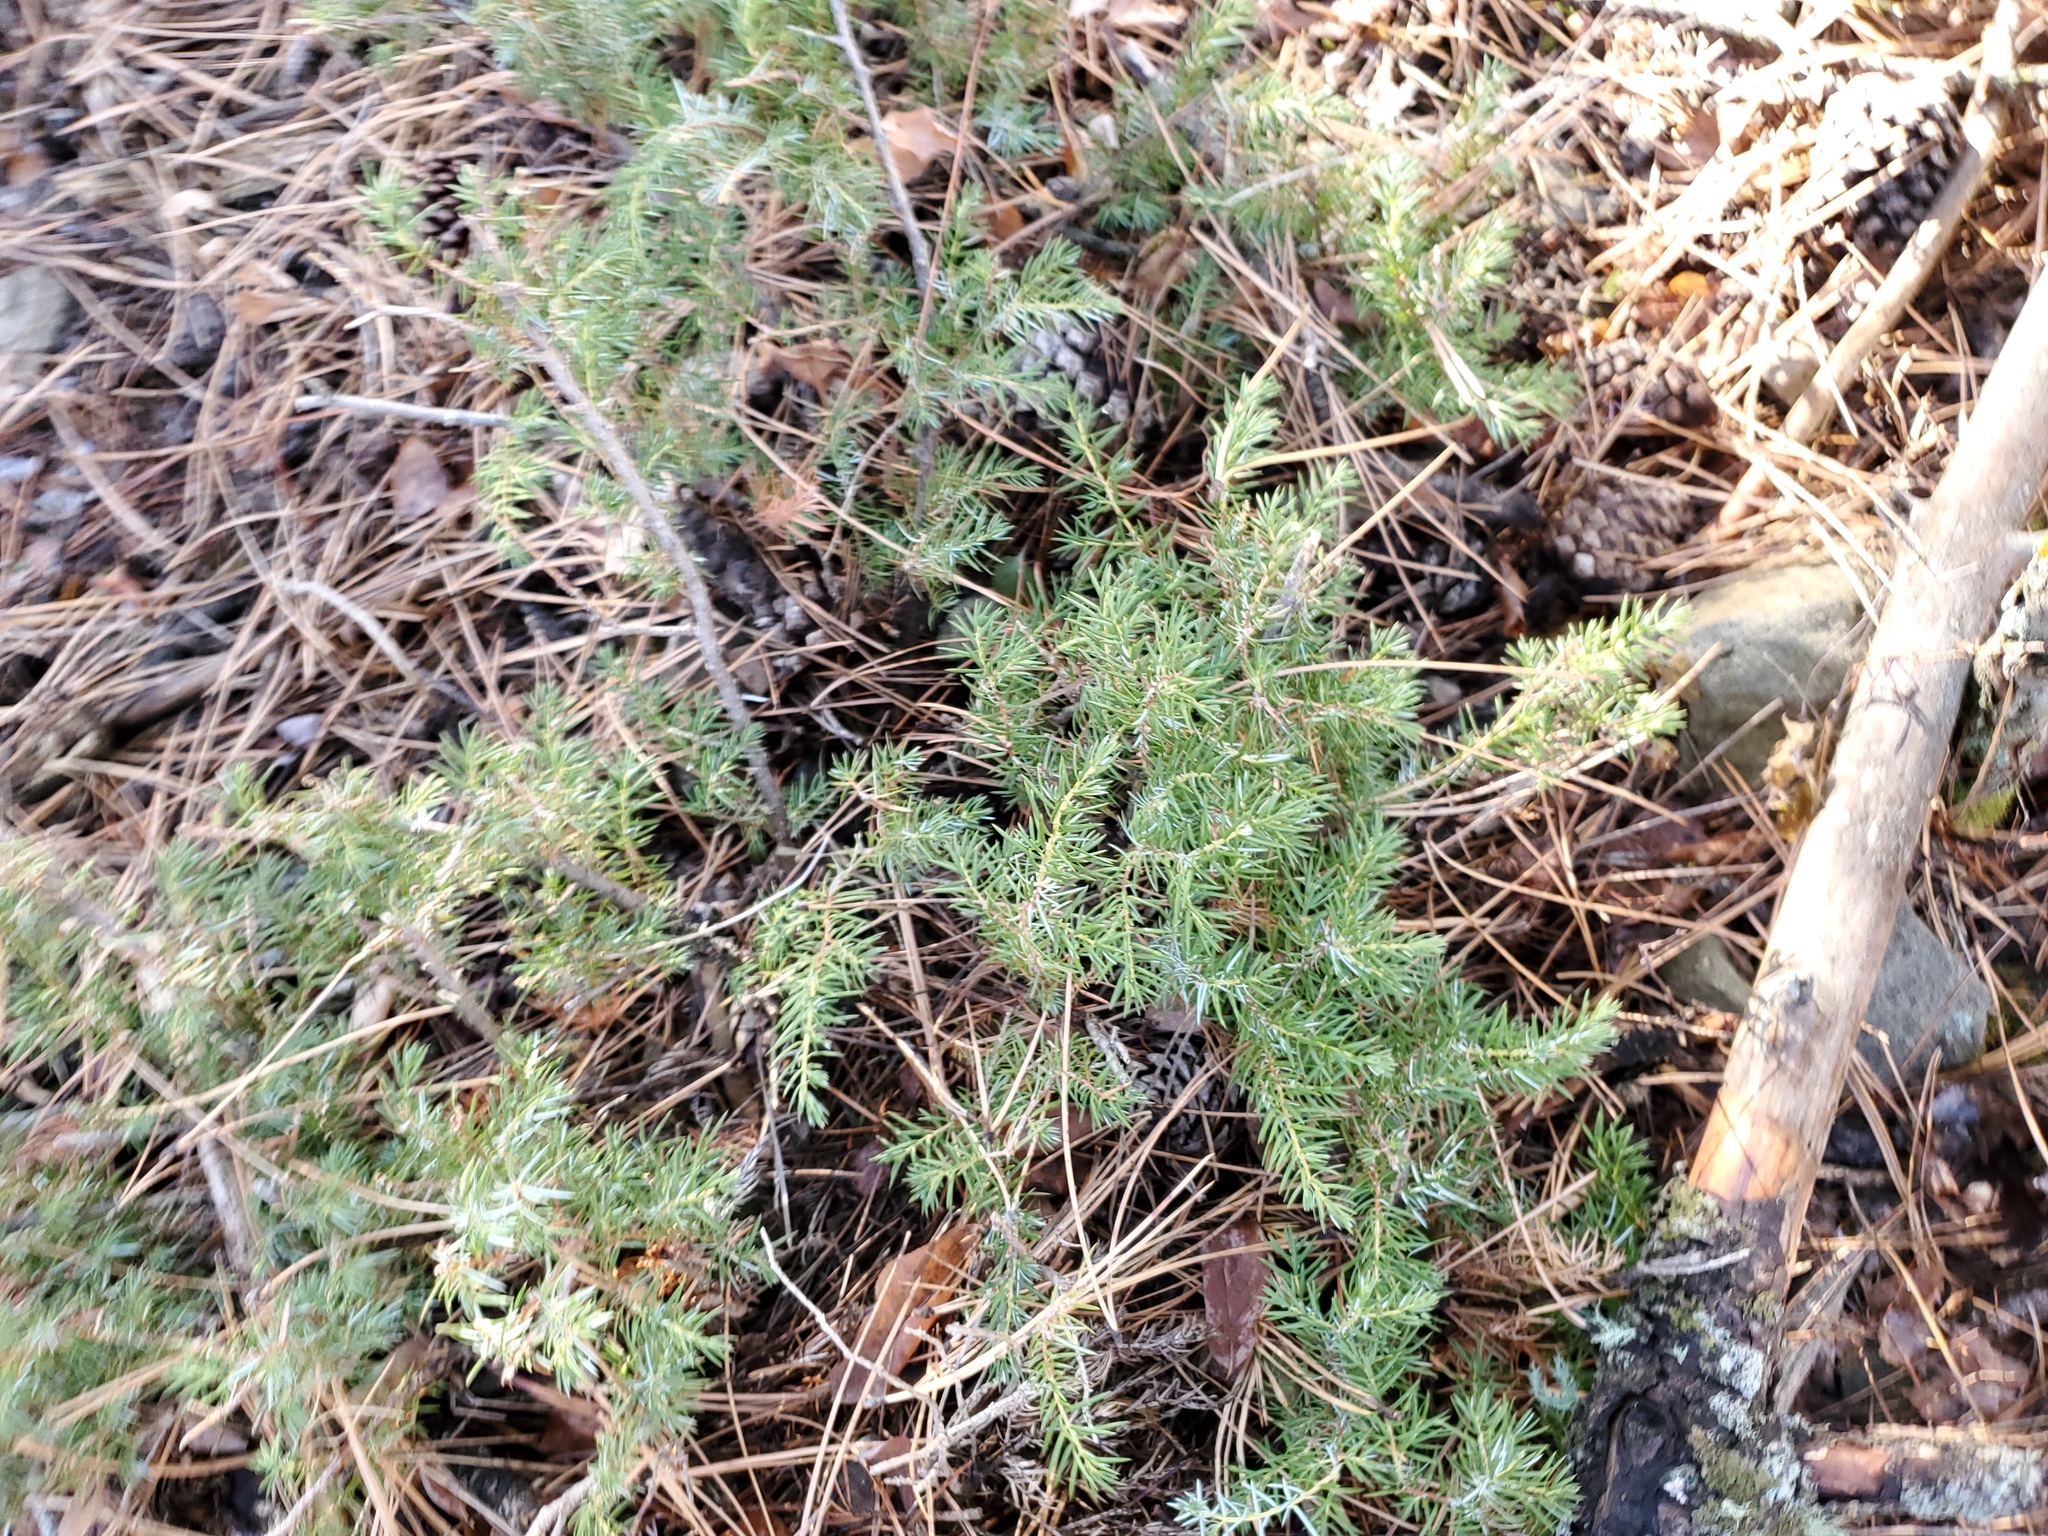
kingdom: Plantae
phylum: Tracheophyta
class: Pinopsida
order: Pinales
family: Cupressaceae
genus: Juniperus
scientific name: Juniperus communis
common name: Common juniper
